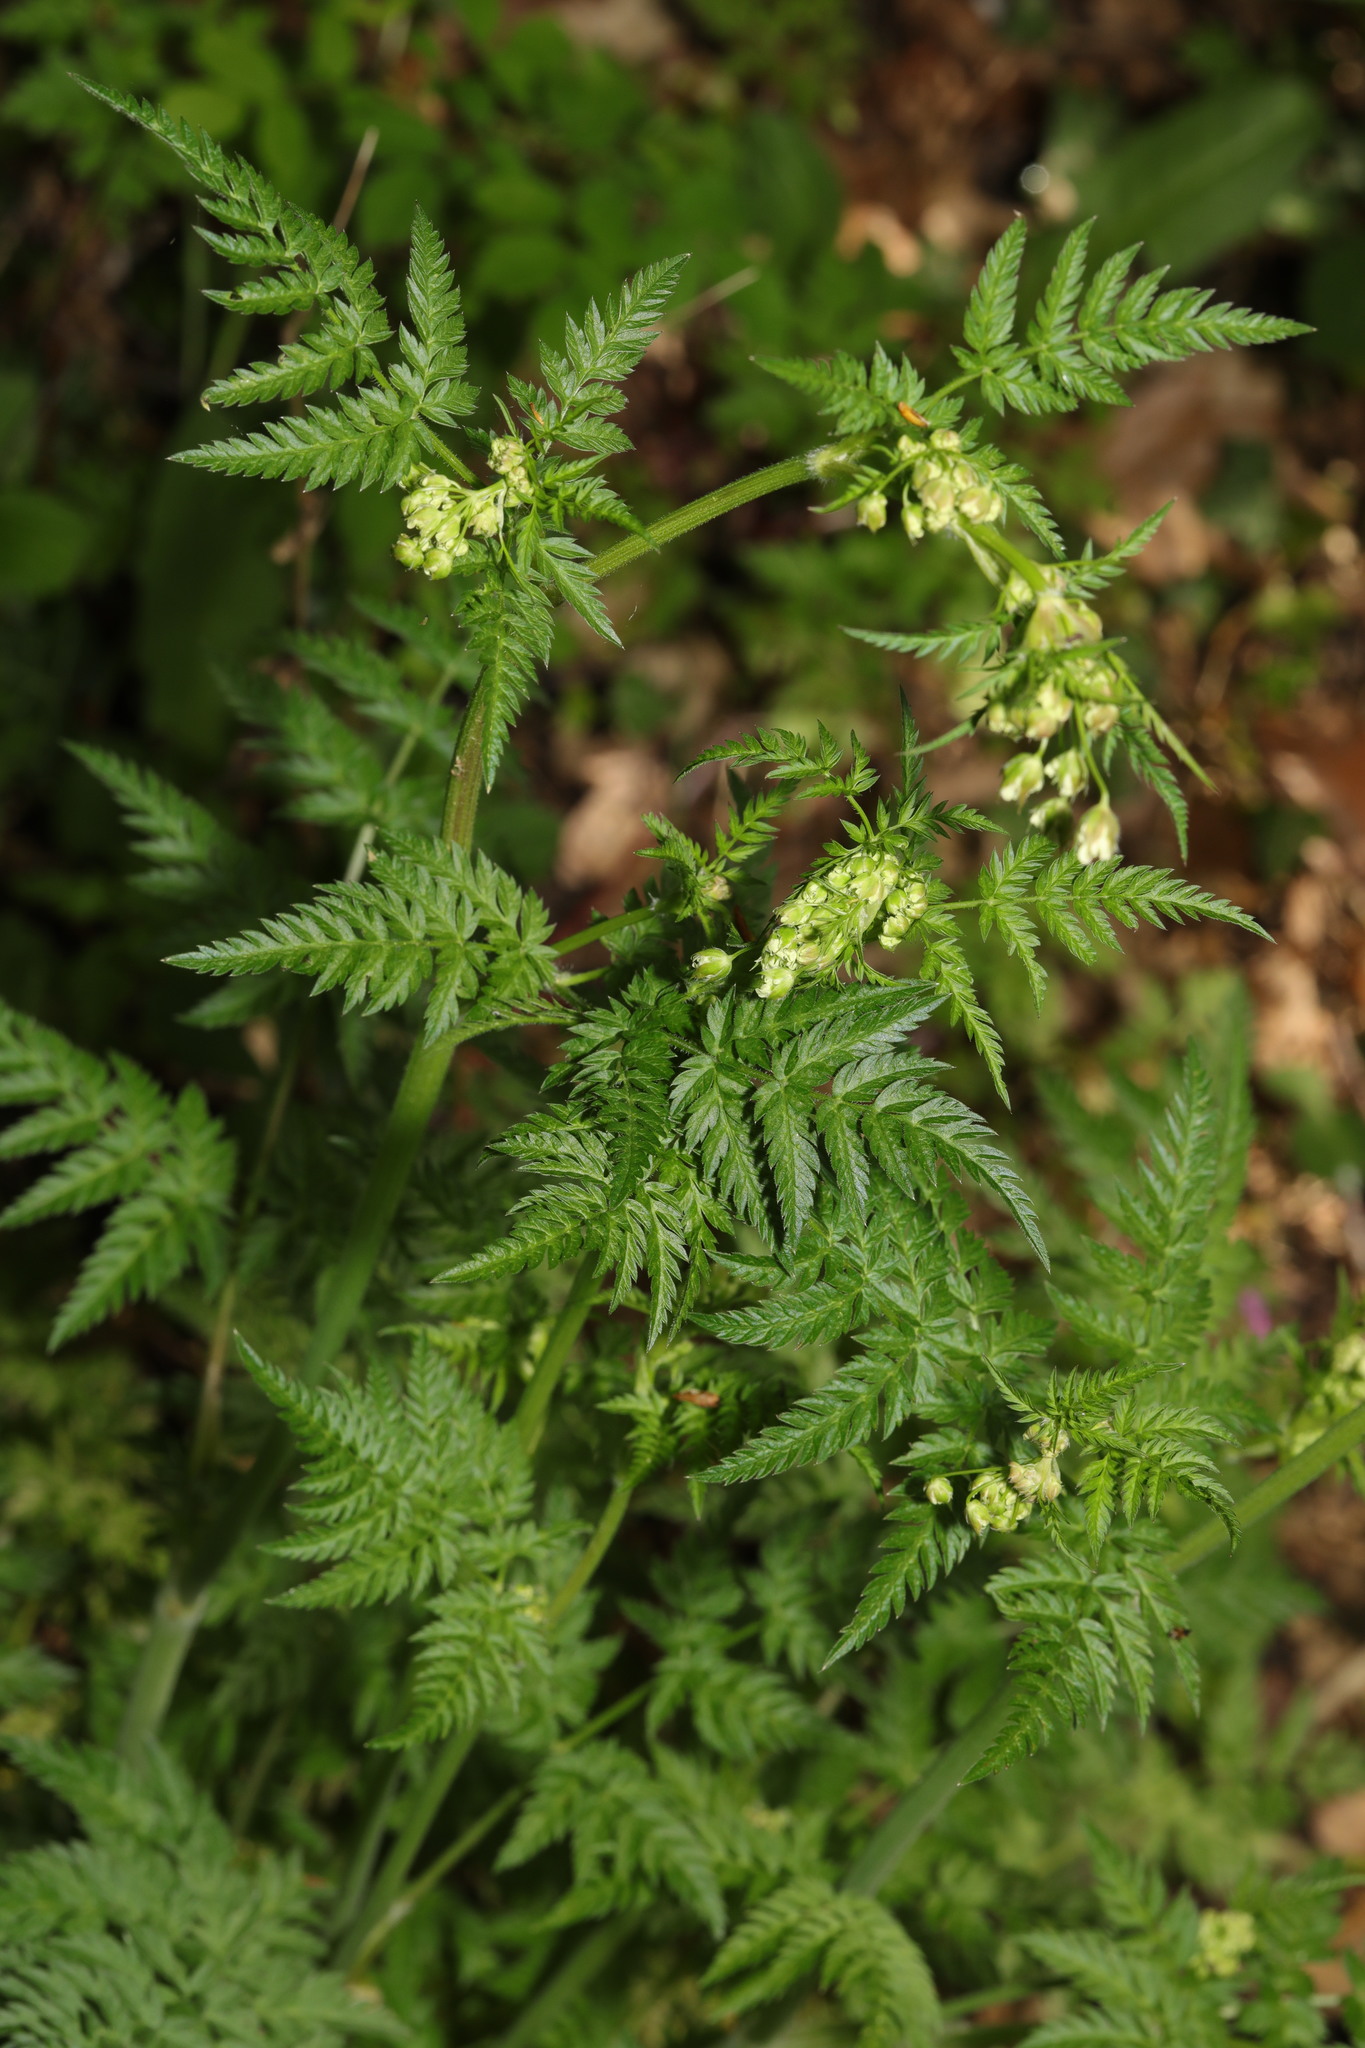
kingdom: Plantae
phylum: Tracheophyta
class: Magnoliopsida
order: Apiales
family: Apiaceae
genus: Anthriscus
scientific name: Anthriscus sylvestris
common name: Cow parsley
